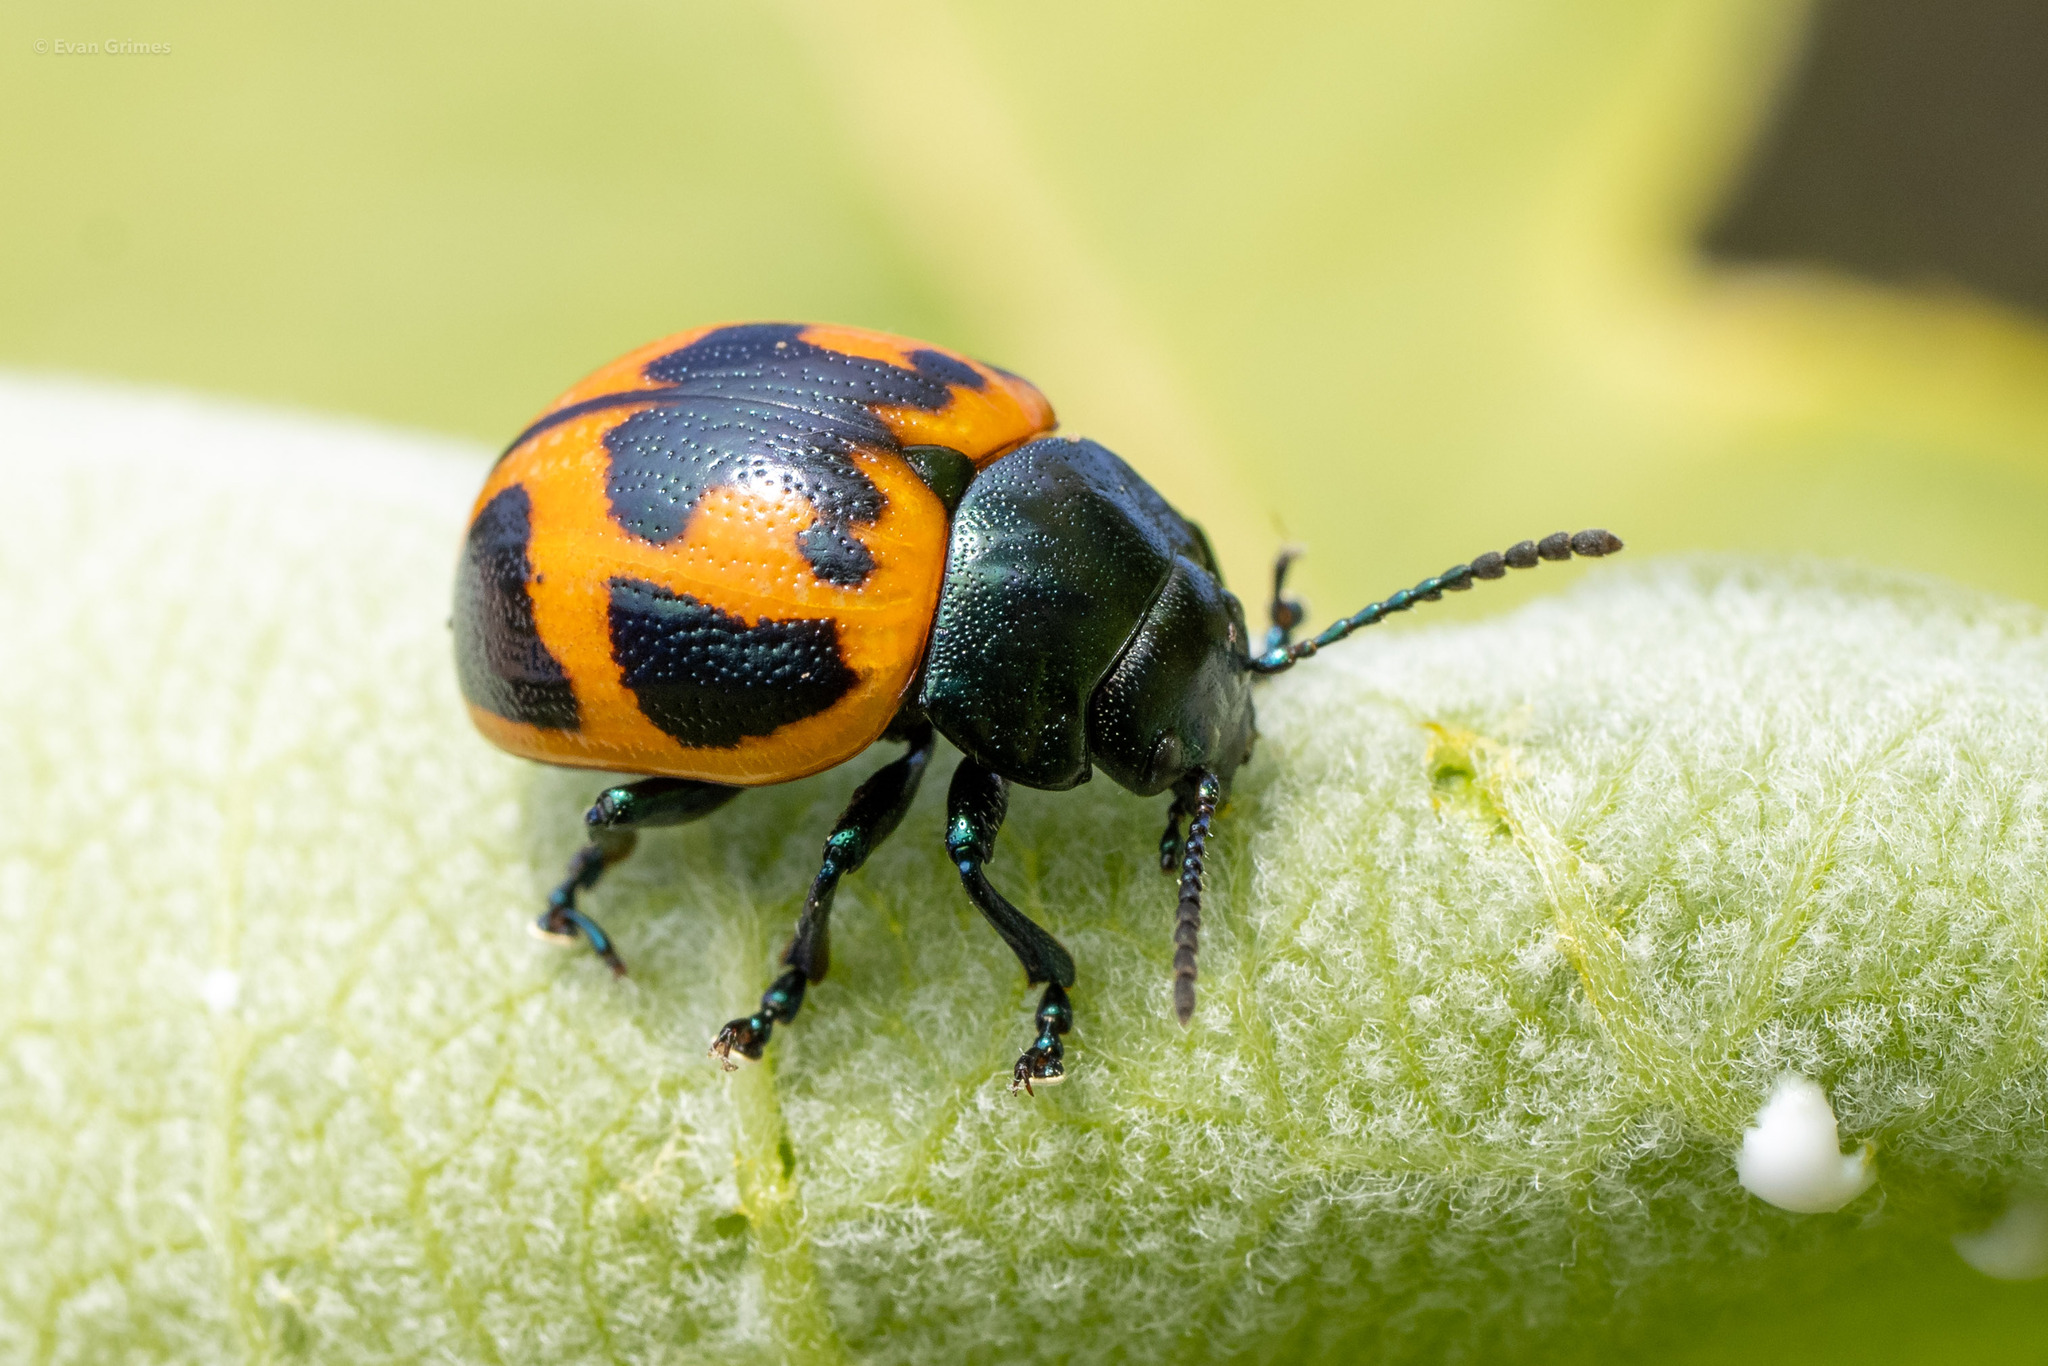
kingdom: Animalia
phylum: Arthropoda
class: Insecta
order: Coleoptera
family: Chrysomelidae
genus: Labidomera
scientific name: Labidomera clivicollis
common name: Swamp milkweed leaf beetle
